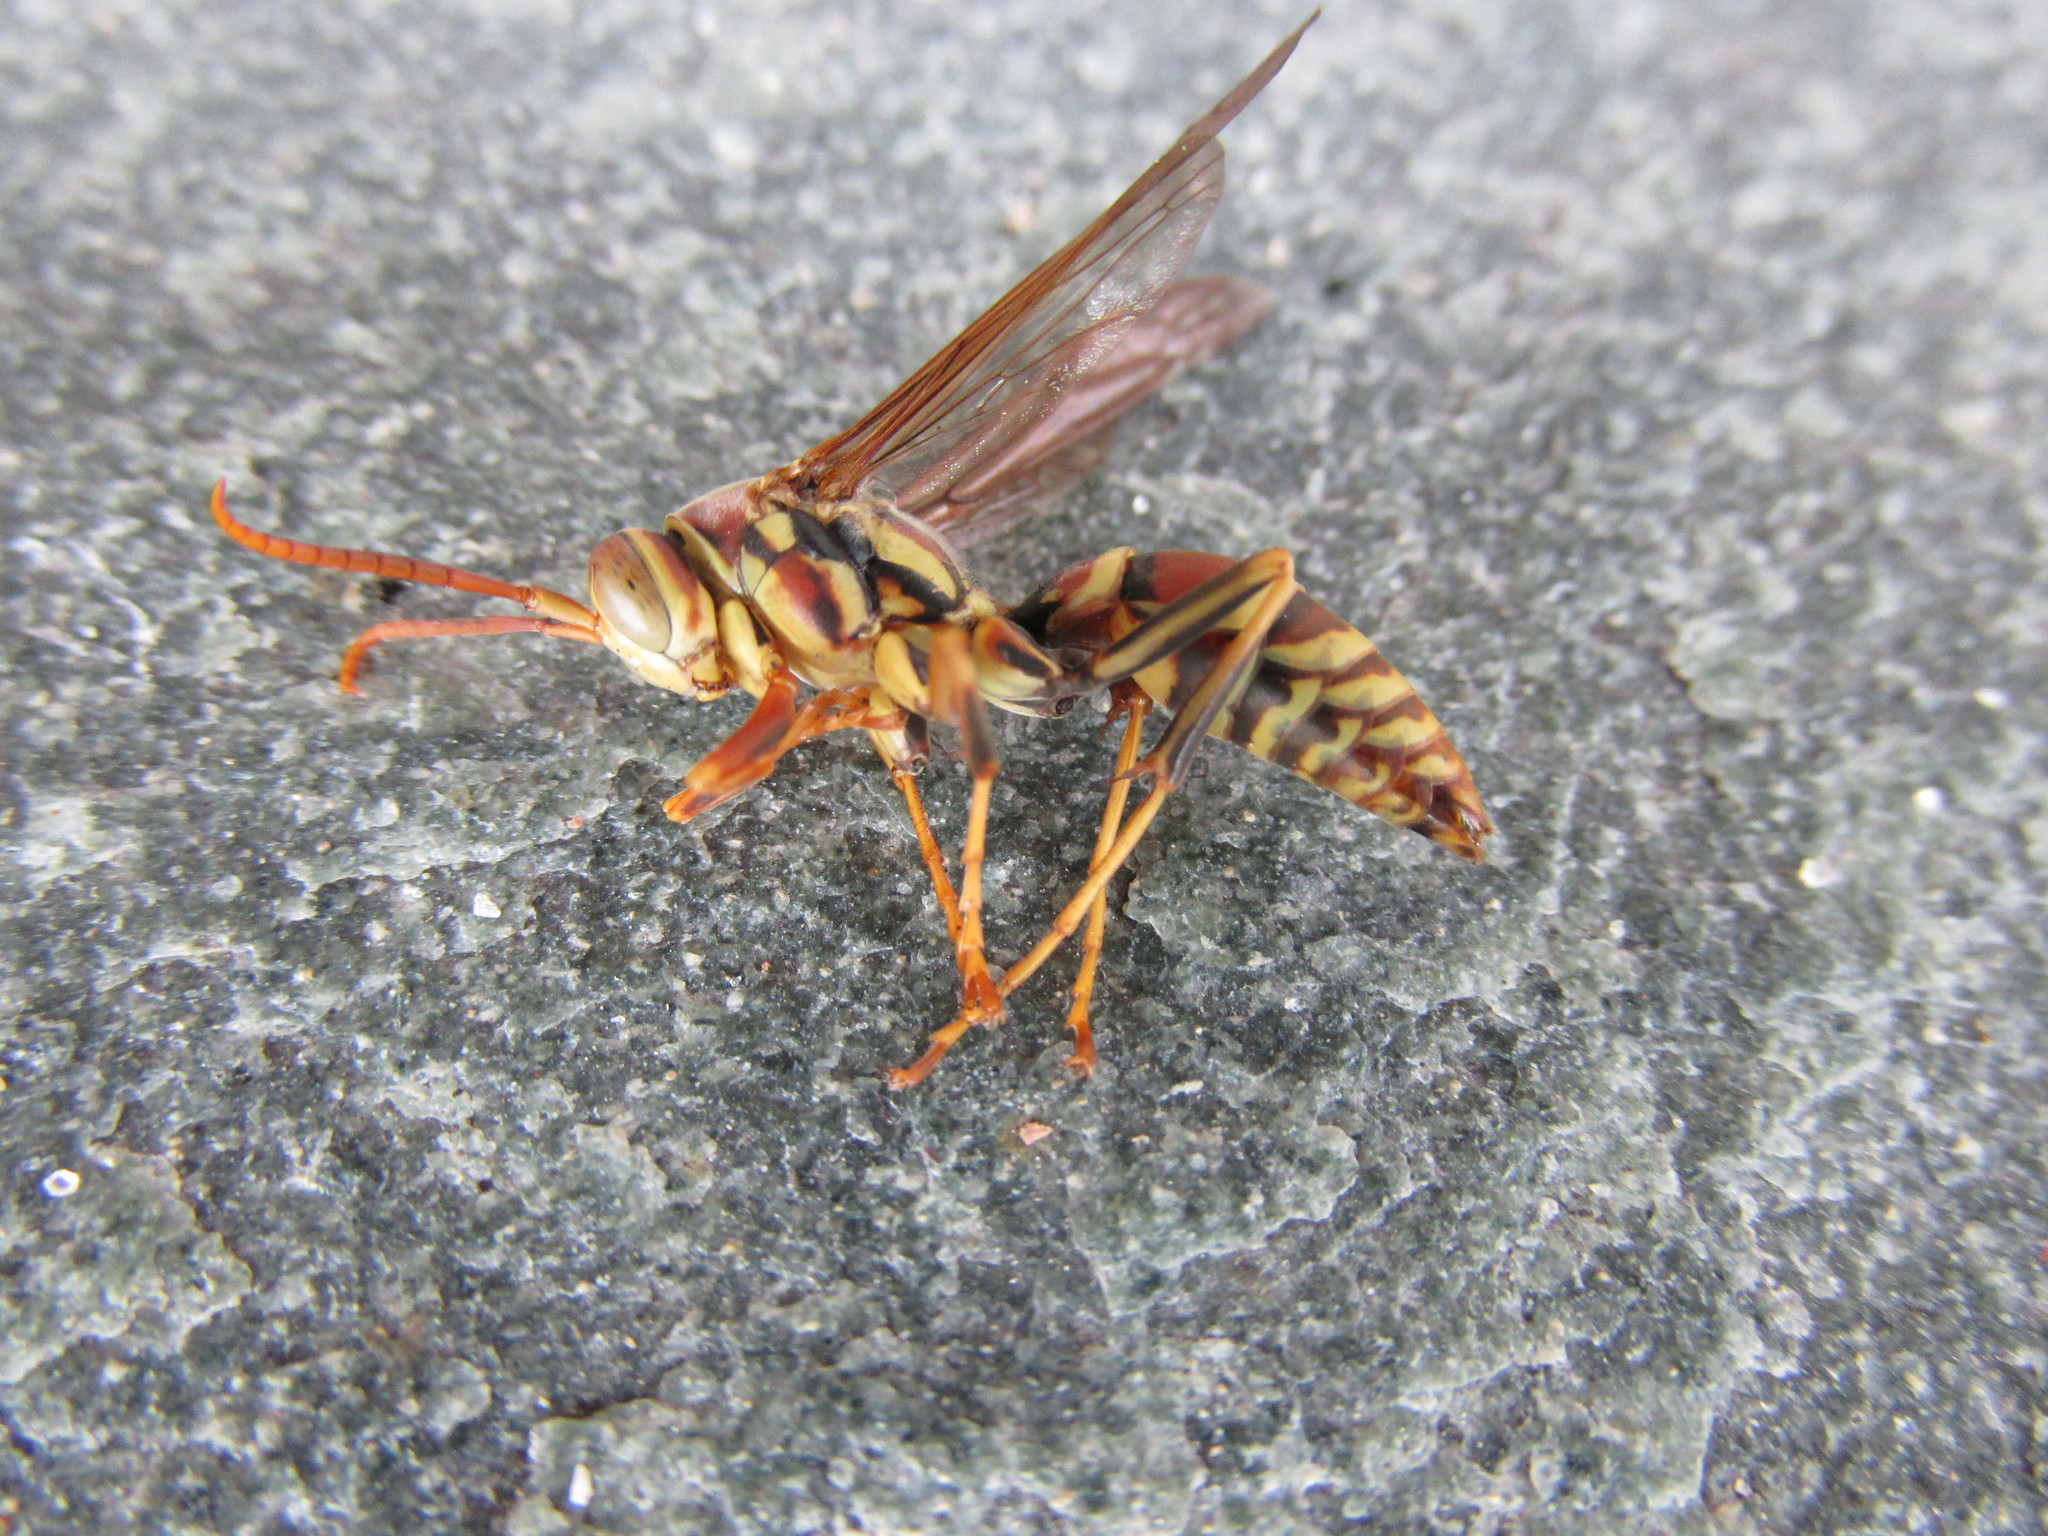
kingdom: Animalia
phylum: Arthropoda
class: Insecta
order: Hymenoptera
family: Eumenidae
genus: Polistes
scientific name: Polistes exclamans
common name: Paper wasp
